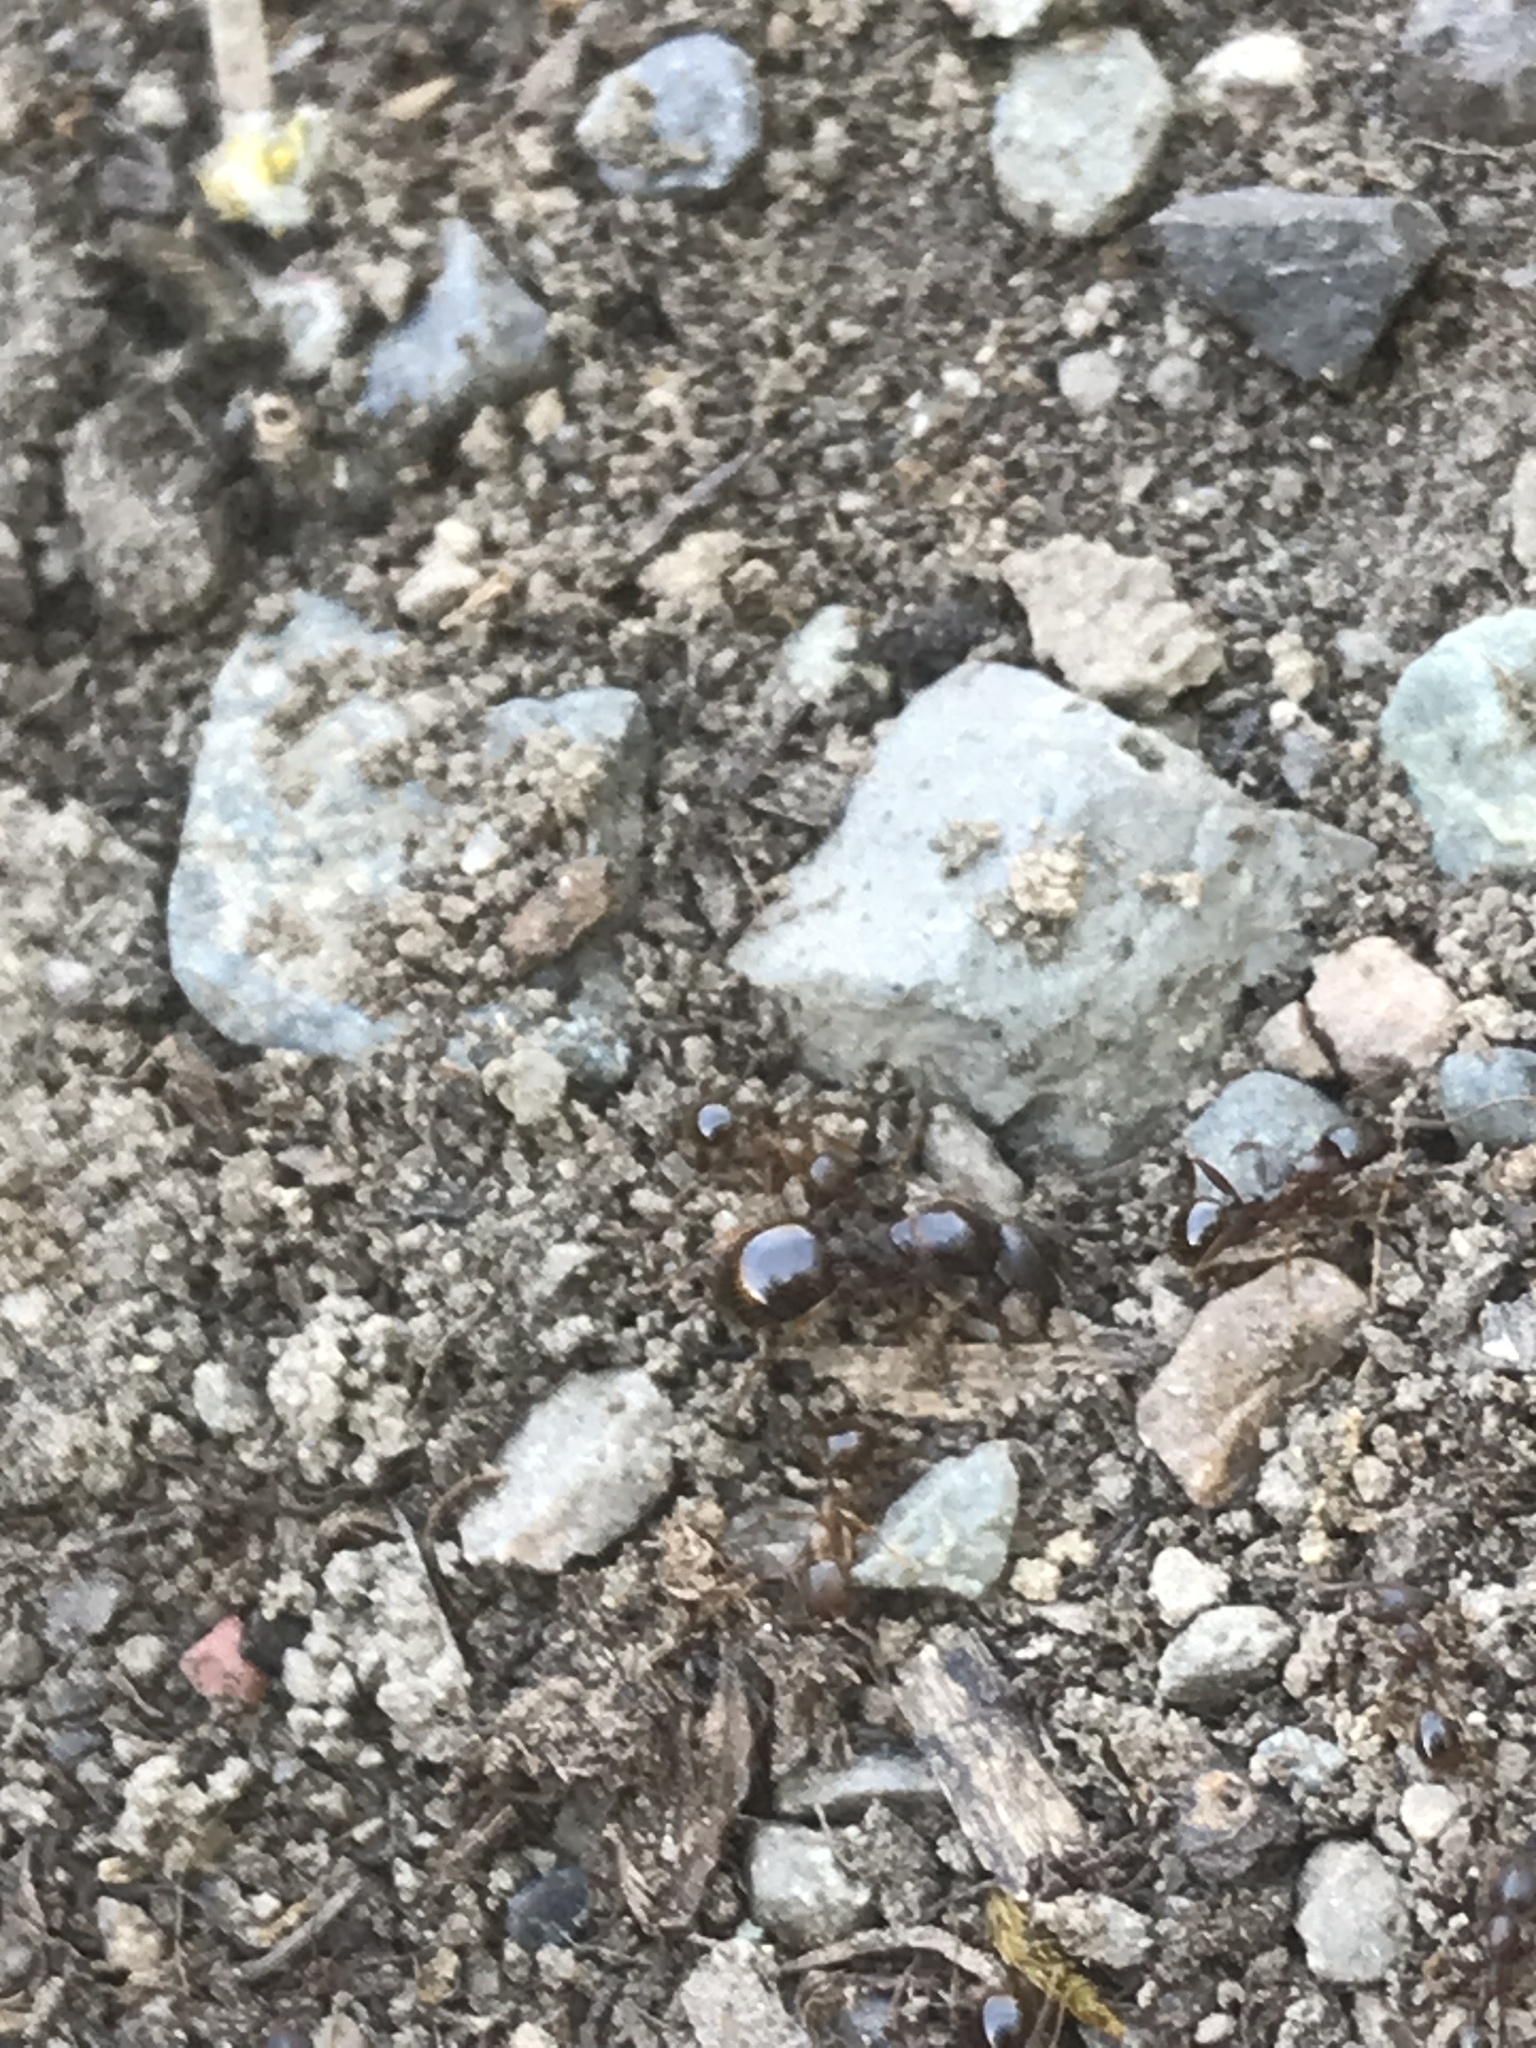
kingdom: Animalia
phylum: Arthropoda
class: Insecta
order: Hymenoptera
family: Formicidae
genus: Aphaenogaster
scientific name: Aphaenogaster occidentalis
